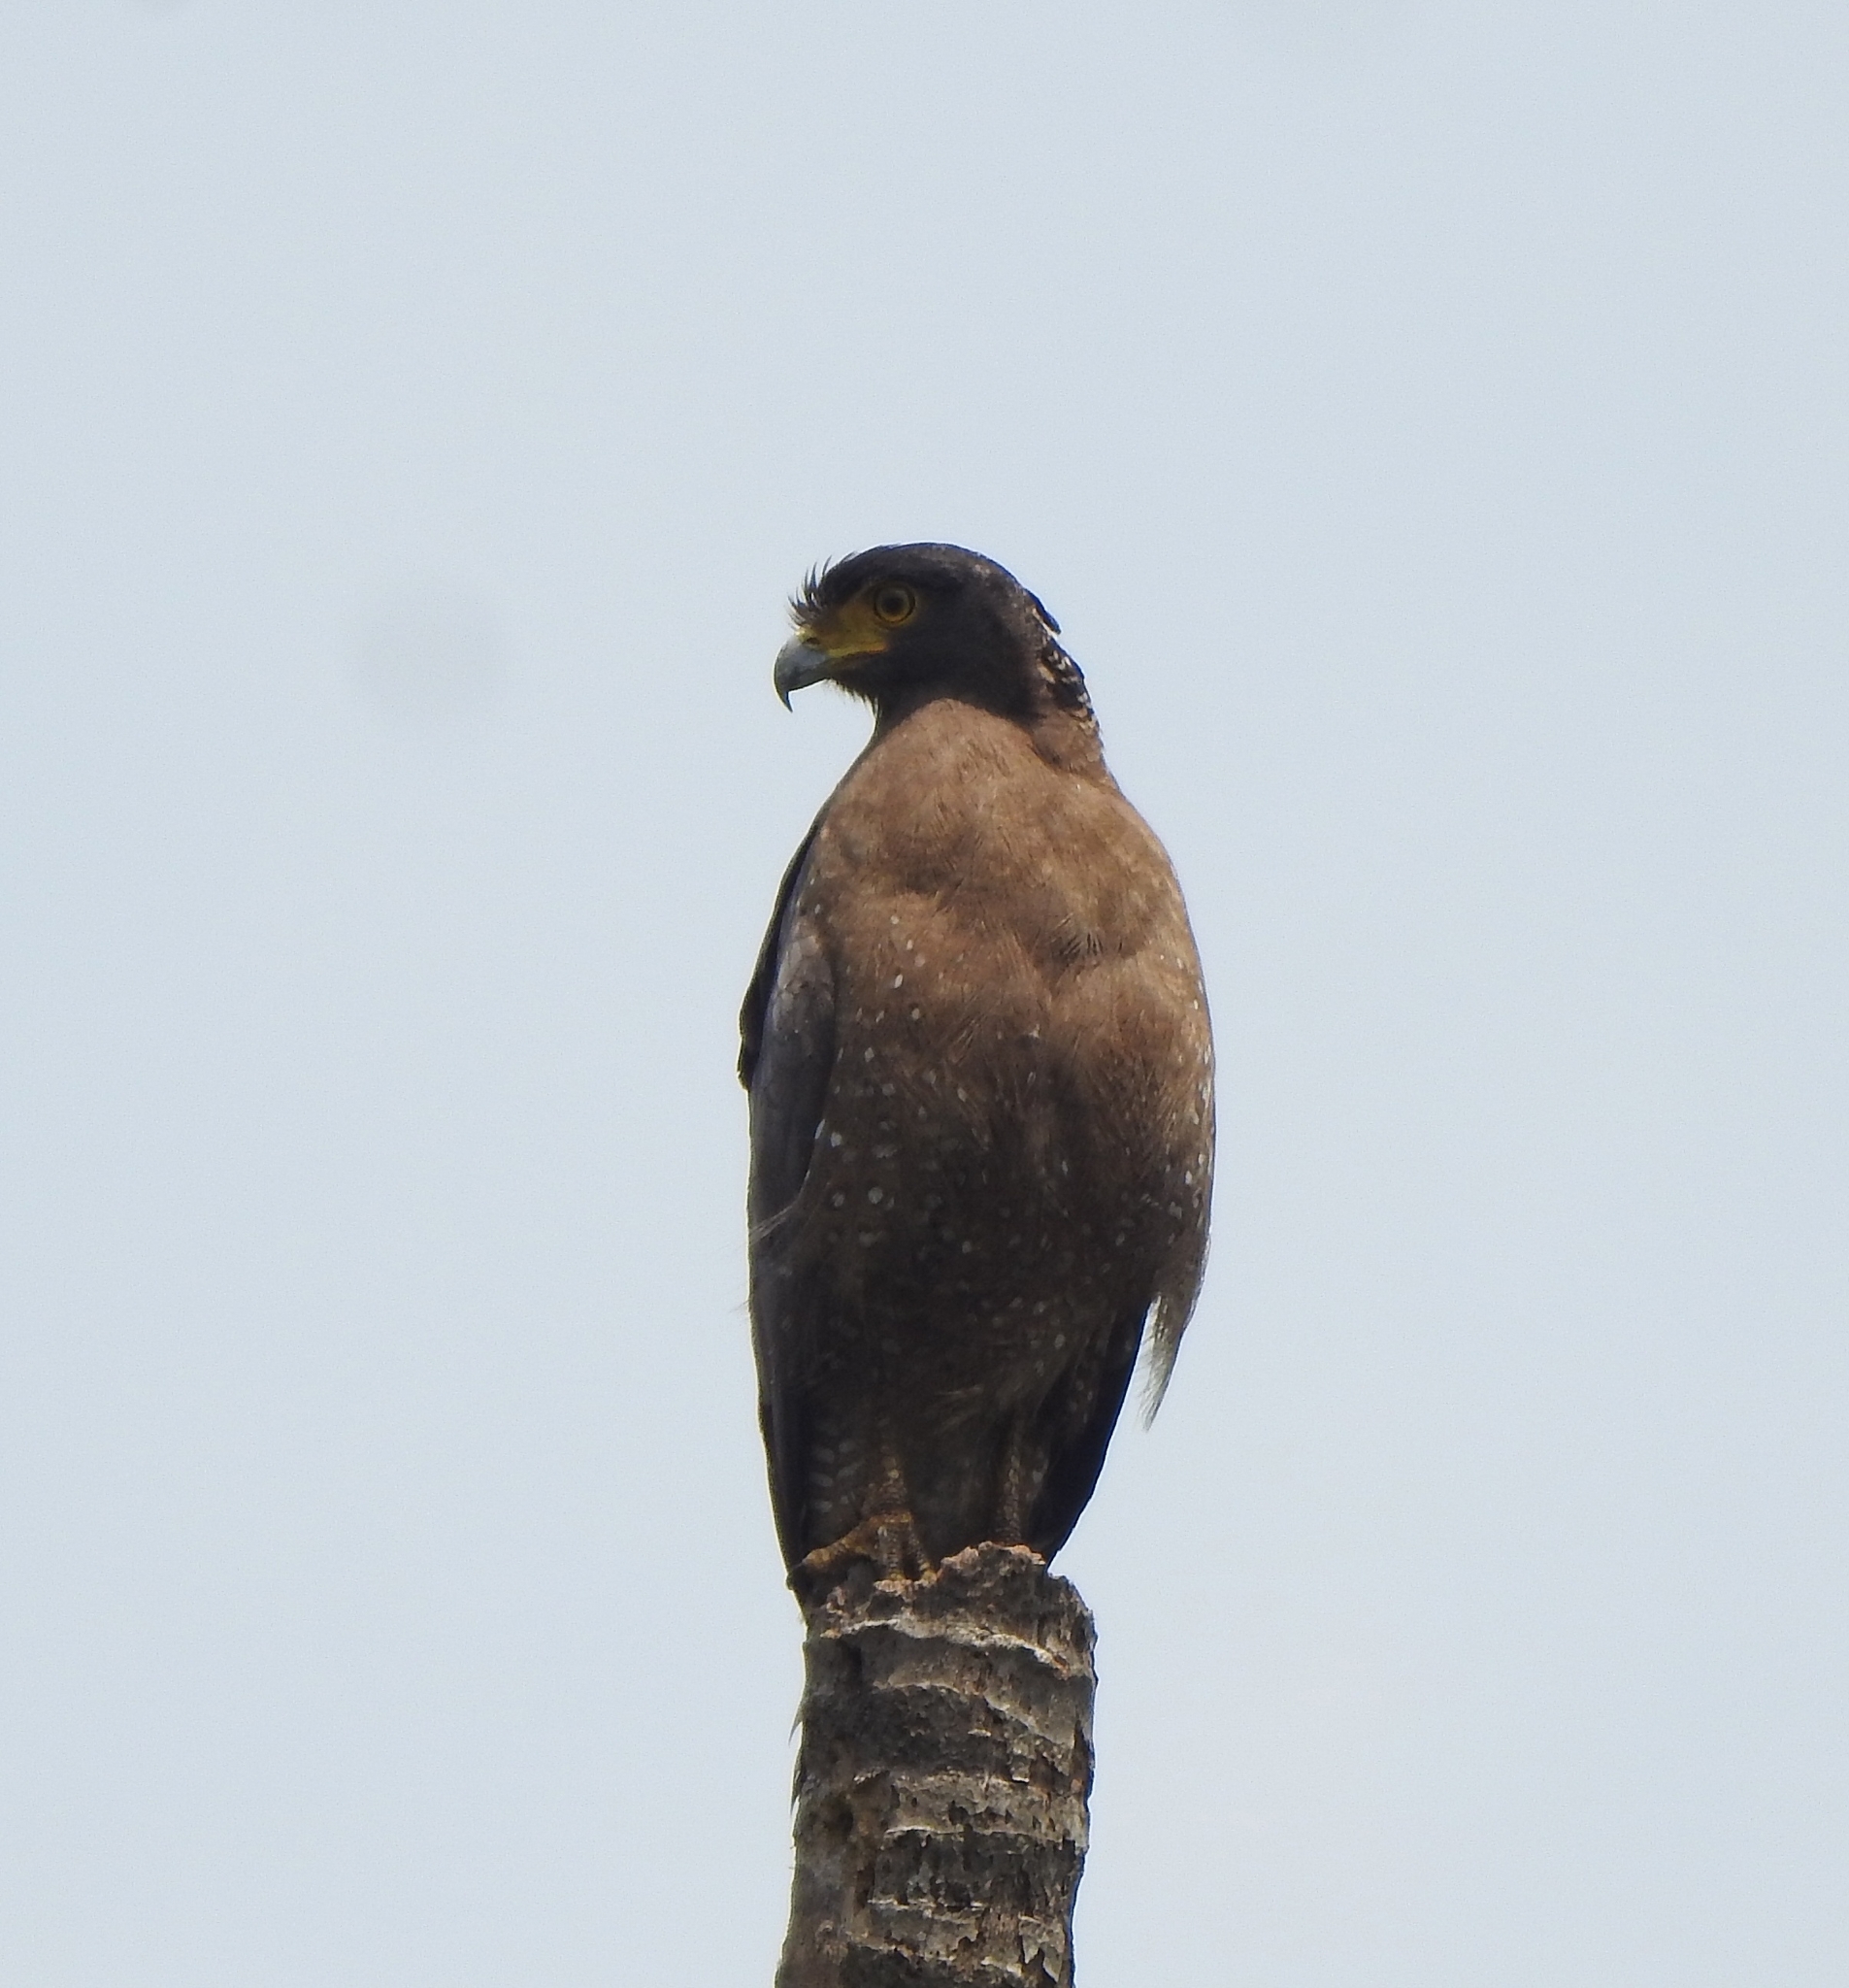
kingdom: Animalia
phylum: Chordata
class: Aves
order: Accipitriformes
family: Accipitridae
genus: Spilornis
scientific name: Spilornis cheela
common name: Crested serpent eagle
